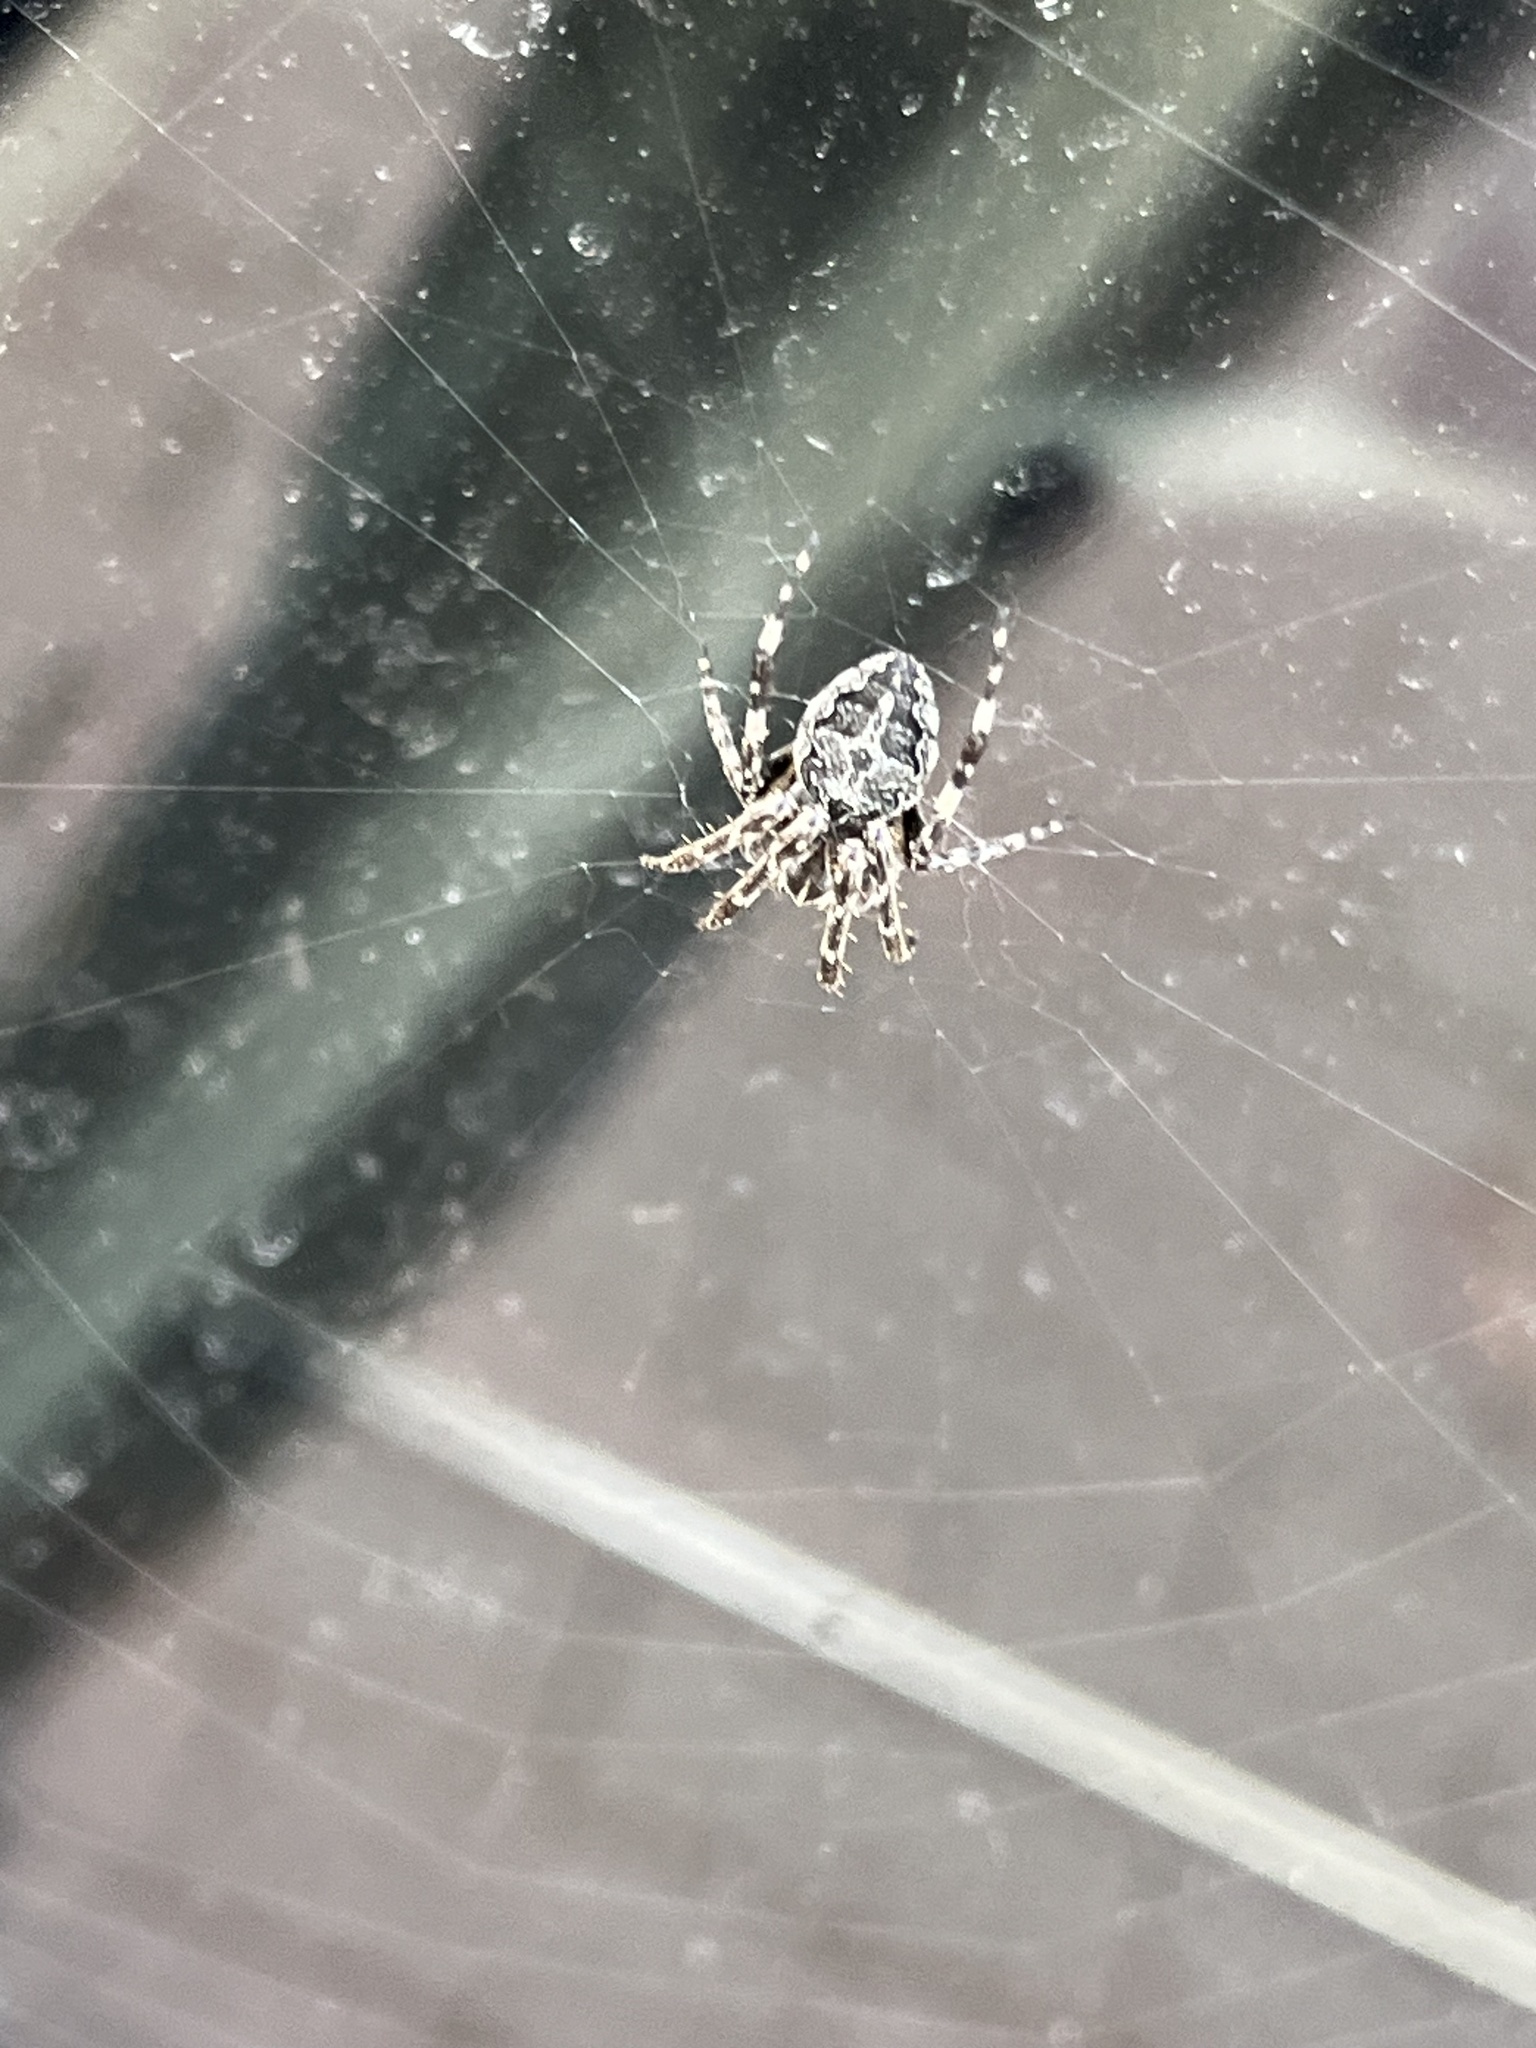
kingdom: Animalia
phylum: Arthropoda
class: Arachnida
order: Araneae
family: Araneidae
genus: Larinioides
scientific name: Larinioides sclopetarius
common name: Bridge orbweaver
